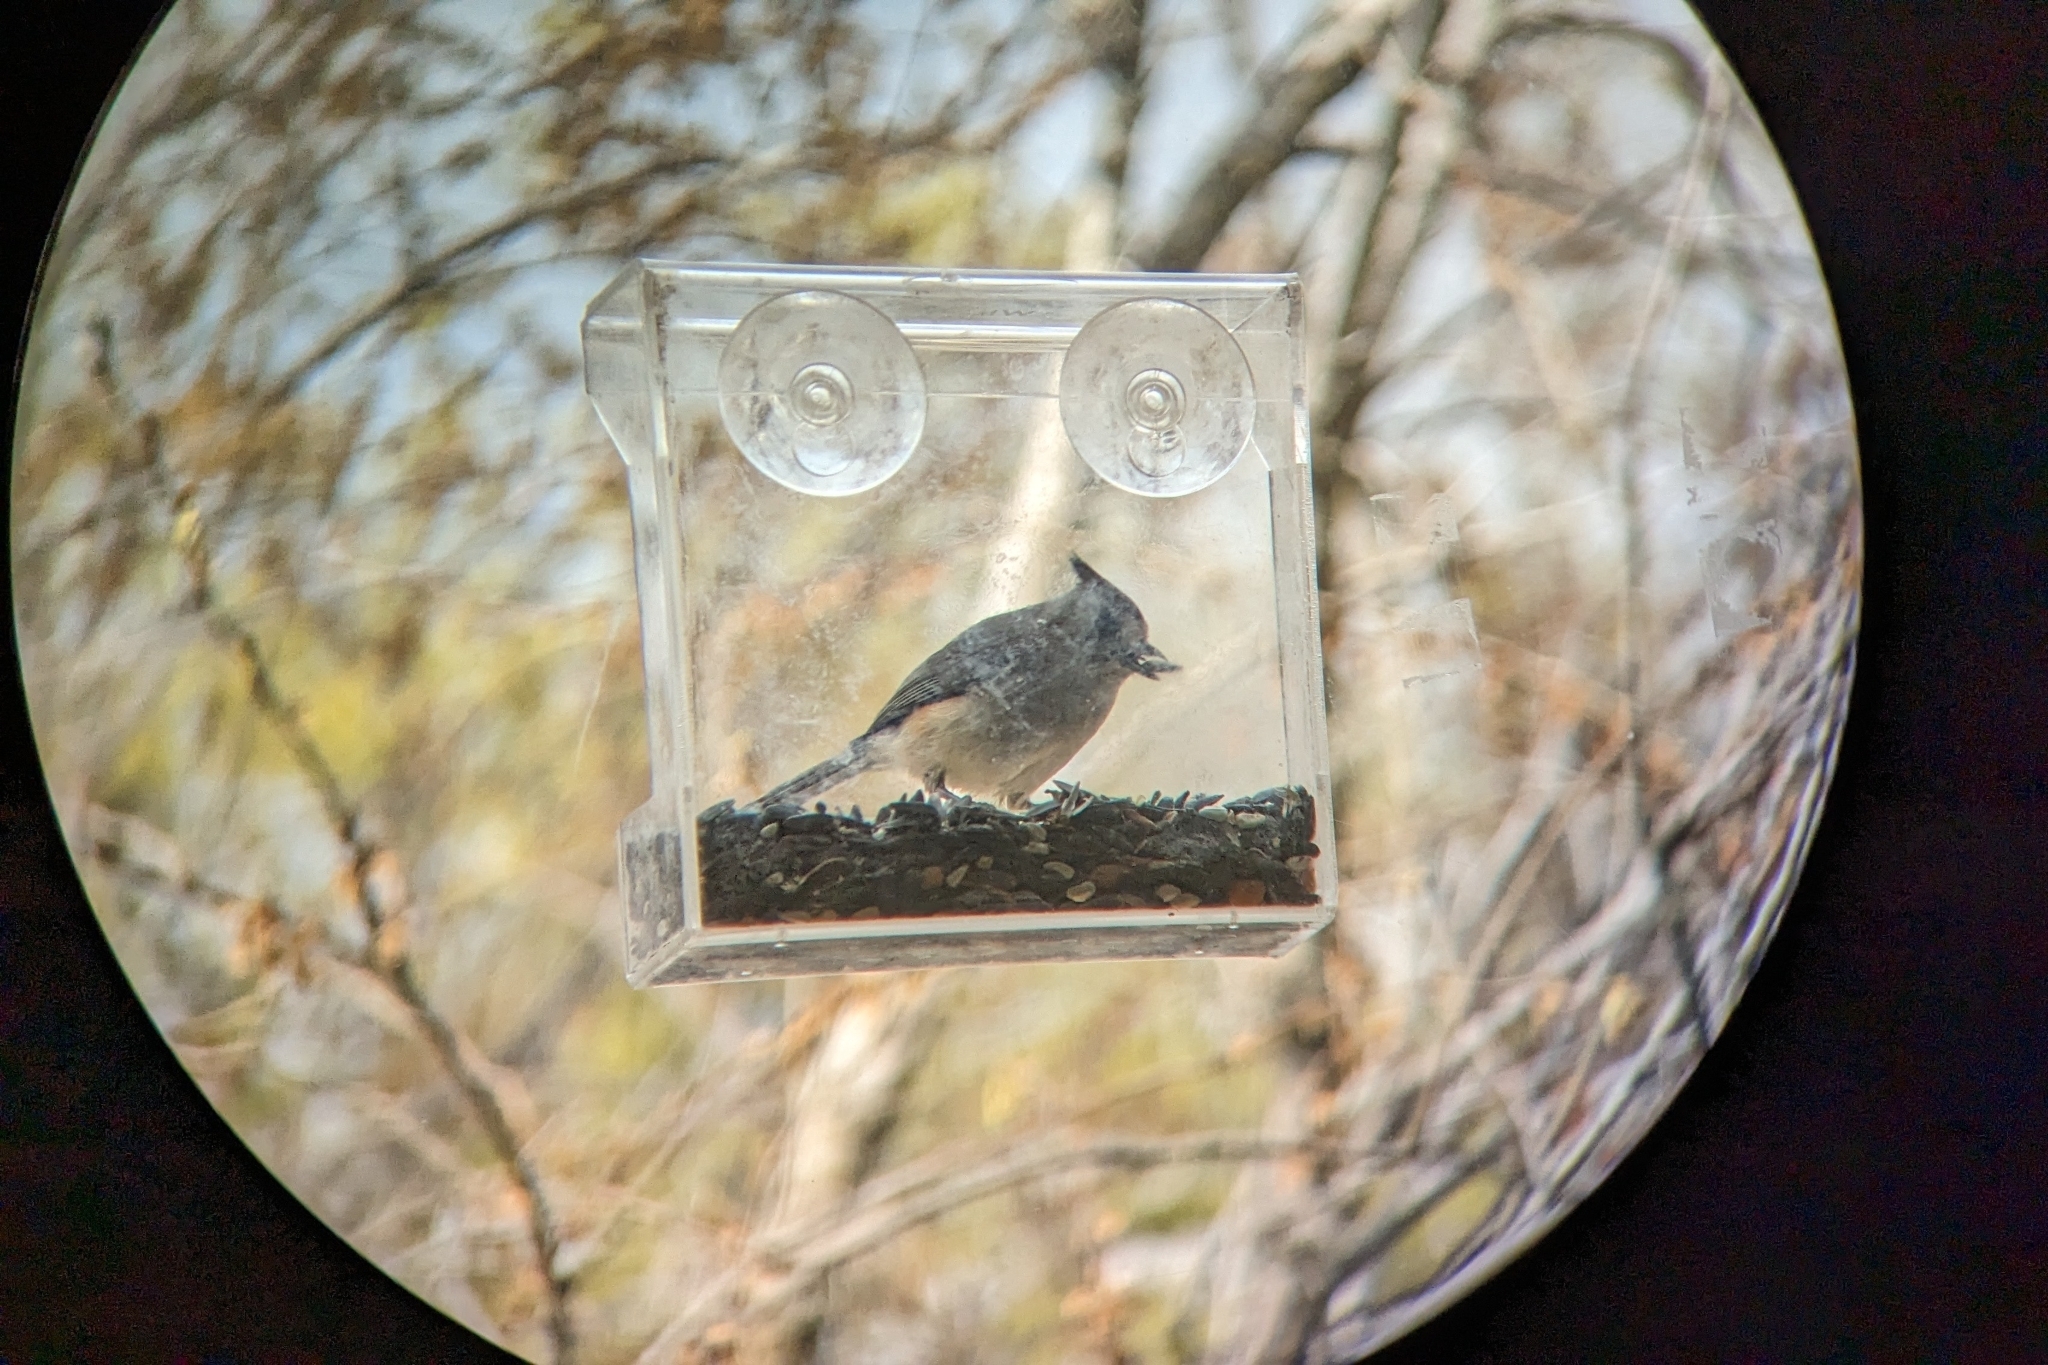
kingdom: Animalia
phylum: Chordata
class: Aves
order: Passeriformes
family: Paridae
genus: Baeolophus
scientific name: Baeolophus atricristatus
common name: Black-crested titmouse
